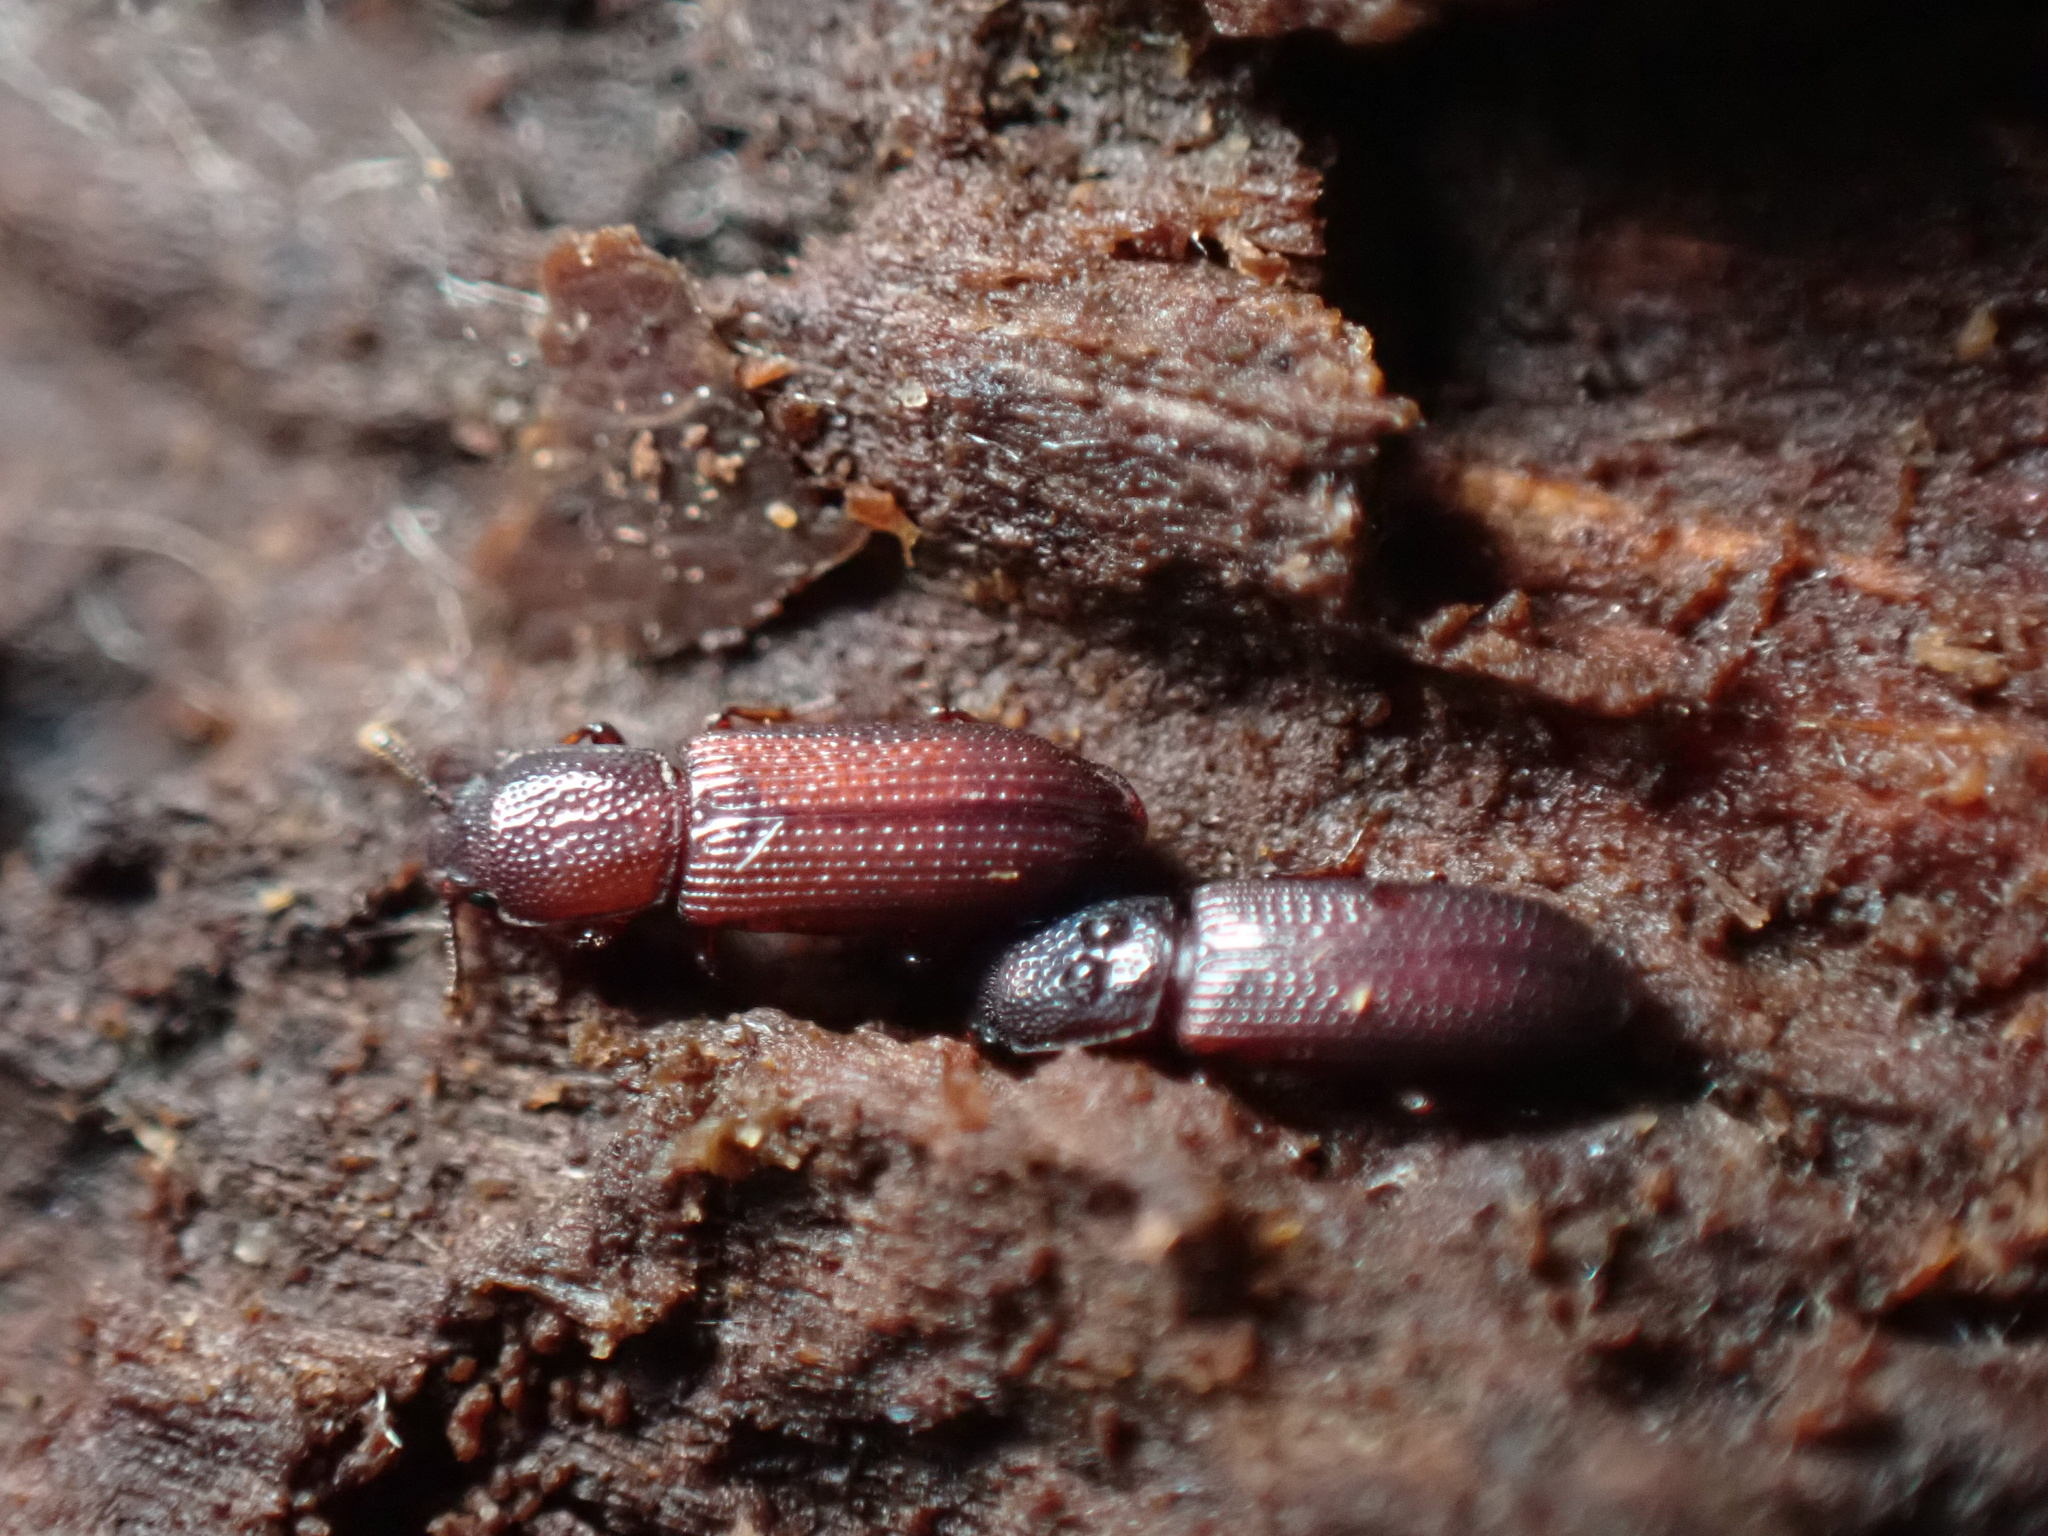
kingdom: Animalia
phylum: Arthropoda
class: Insecta
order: Coleoptera
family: Zopheridae
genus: Pycnomerus
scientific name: Pycnomerus reflexus
